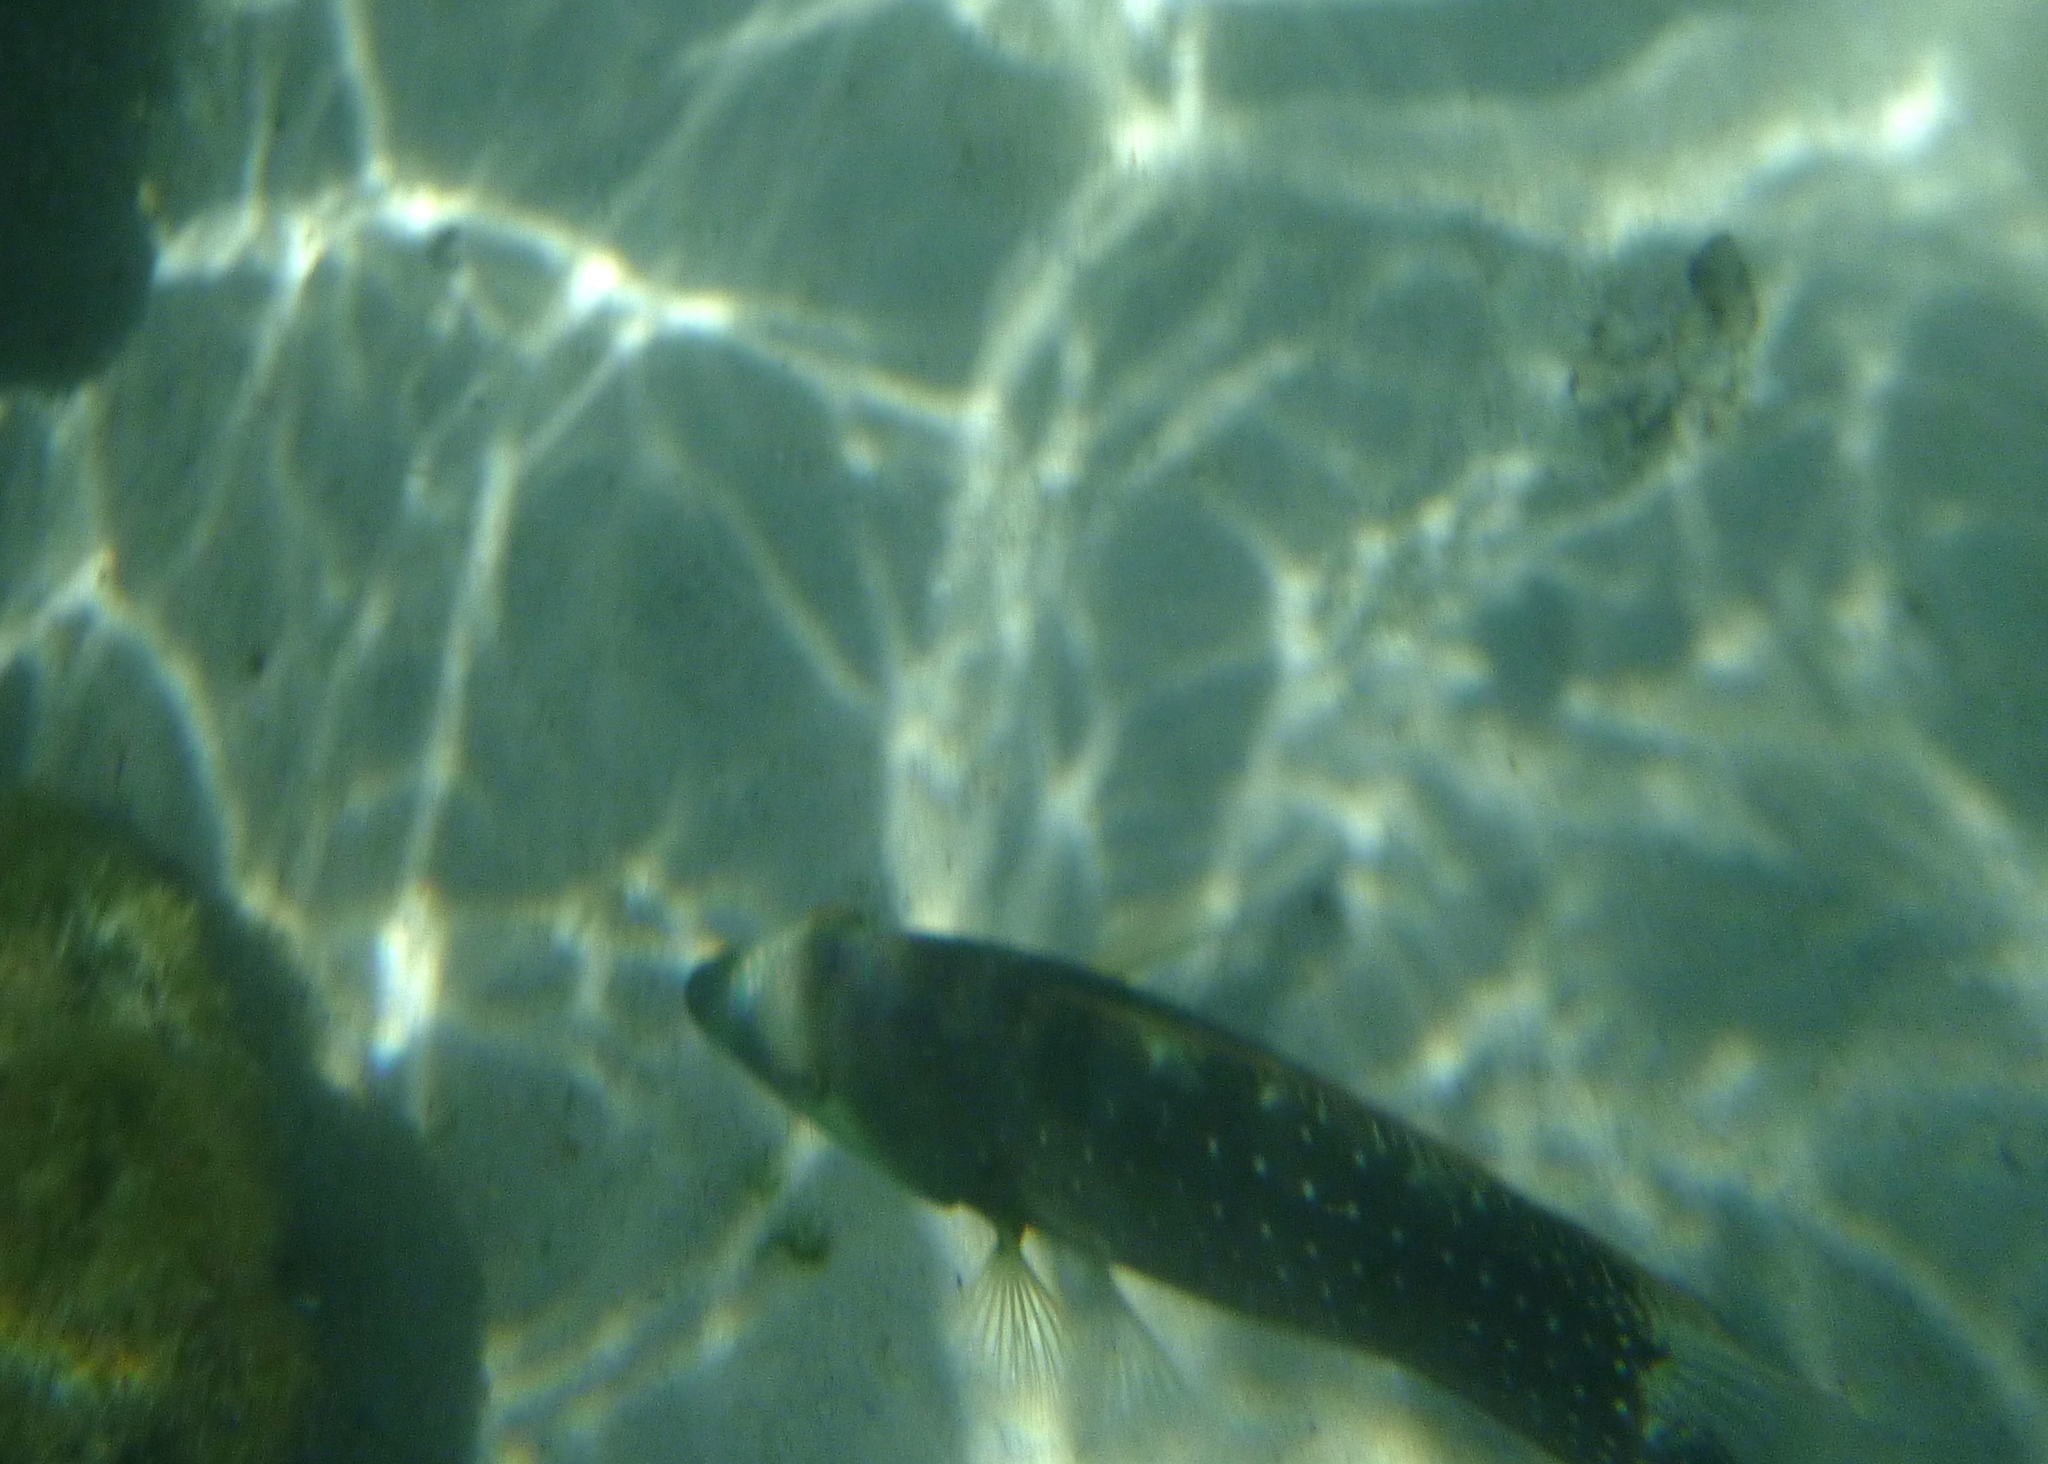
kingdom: Animalia
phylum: Chordata
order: Perciformes
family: Labridae
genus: Cheilinus
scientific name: Cheilinus chlorourus
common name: Floral wrasse
